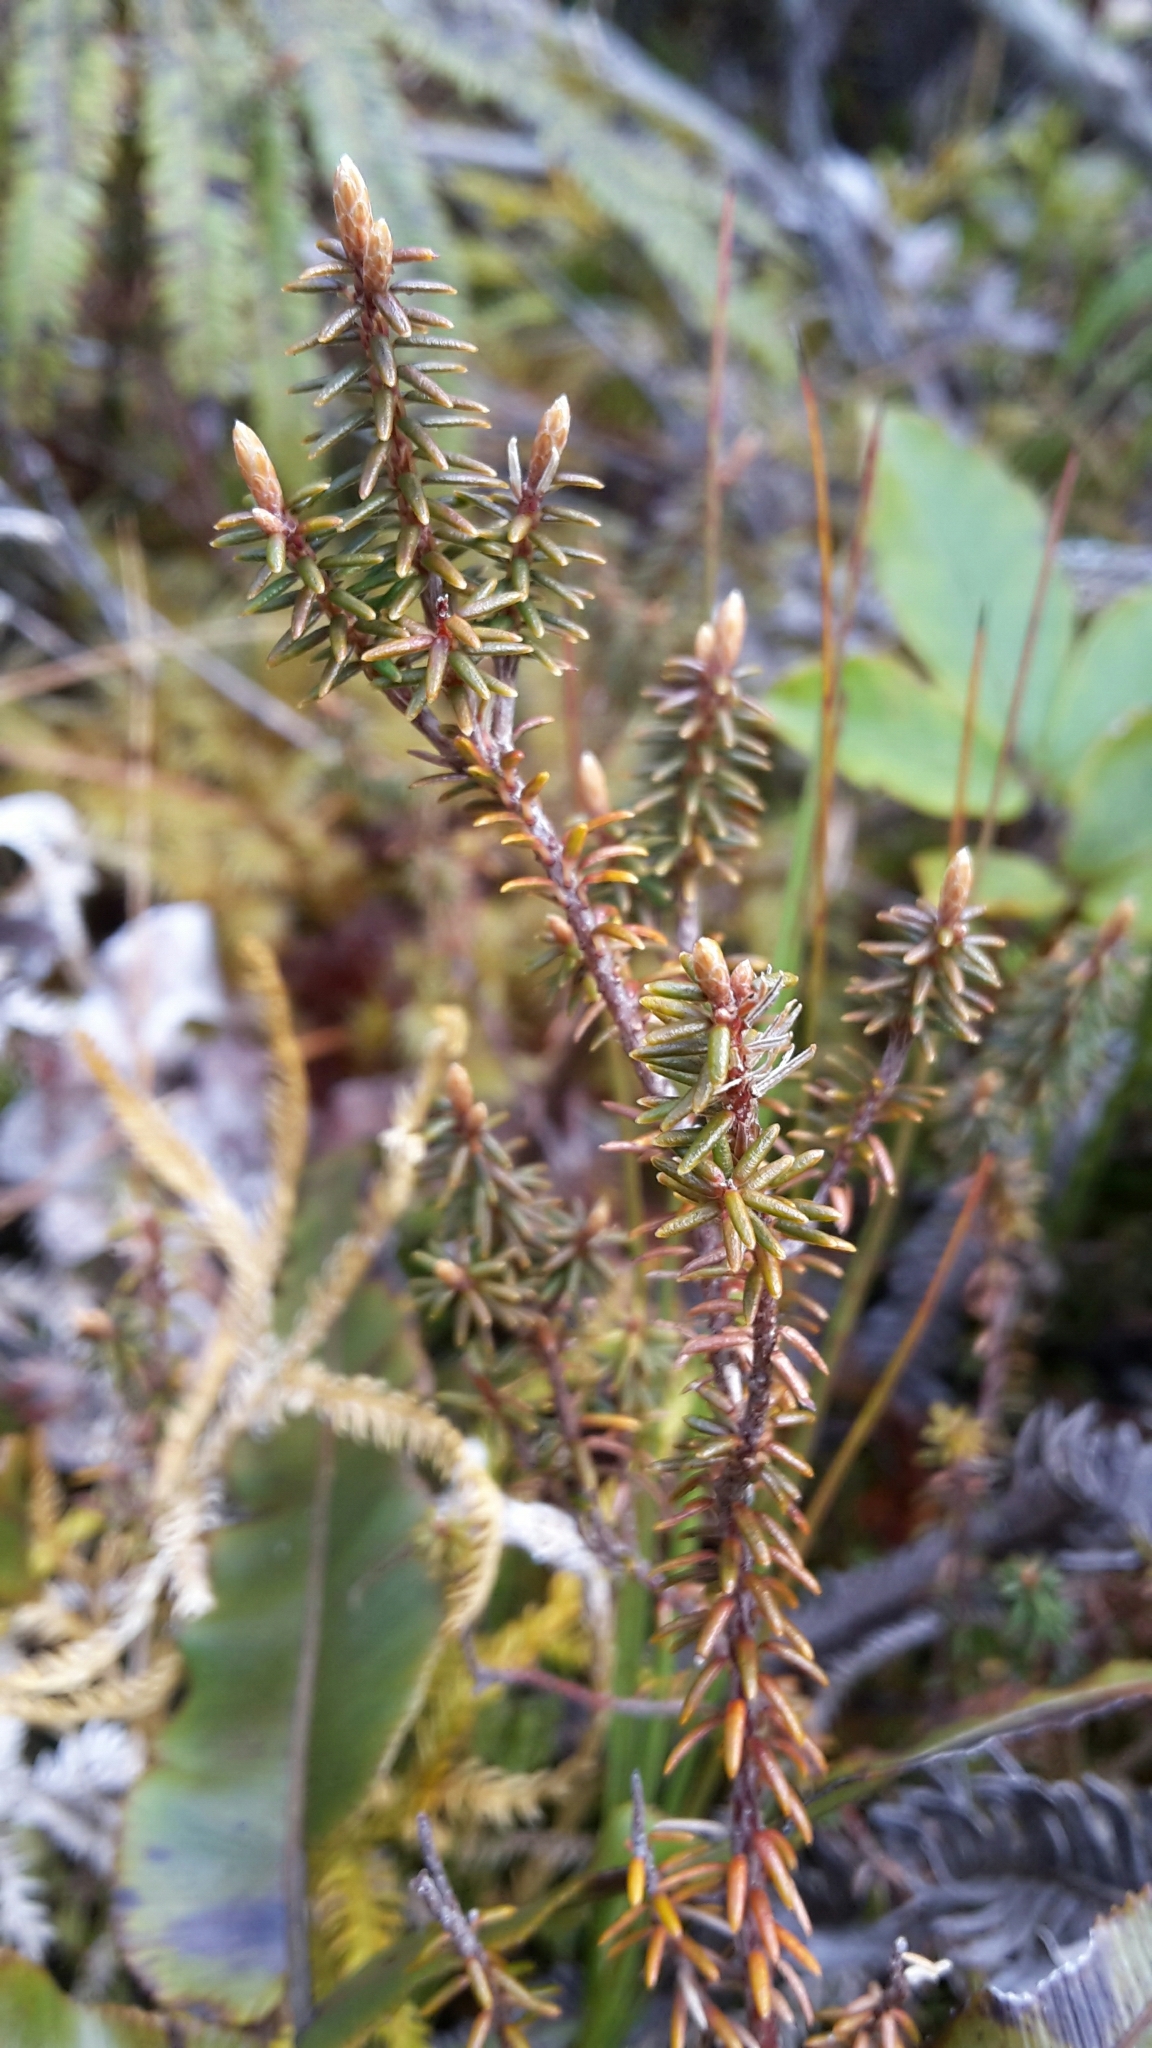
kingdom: Plantae
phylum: Tracheophyta
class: Magnoliopsida
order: Ericales
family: Ericaceae
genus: Androstoma
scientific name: Androstoma empetrifolia
